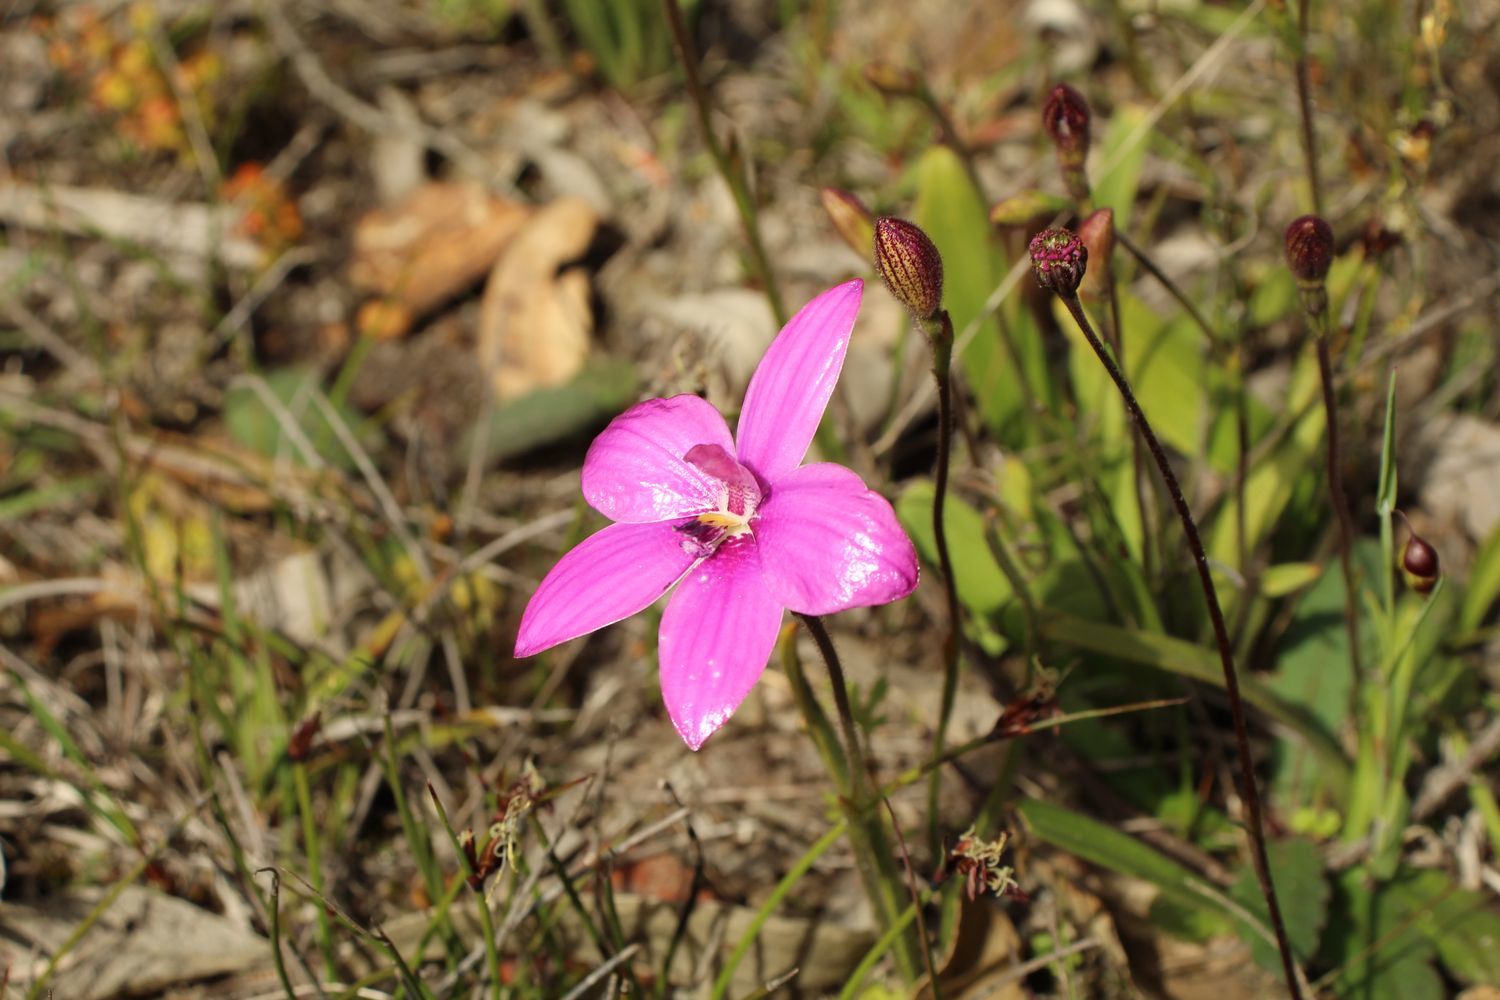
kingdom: Plantae
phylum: Tracheophyta
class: Liliopsida
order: Asparagales
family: Orchidaceae
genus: Caladenia
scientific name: Caladenia emarginata
